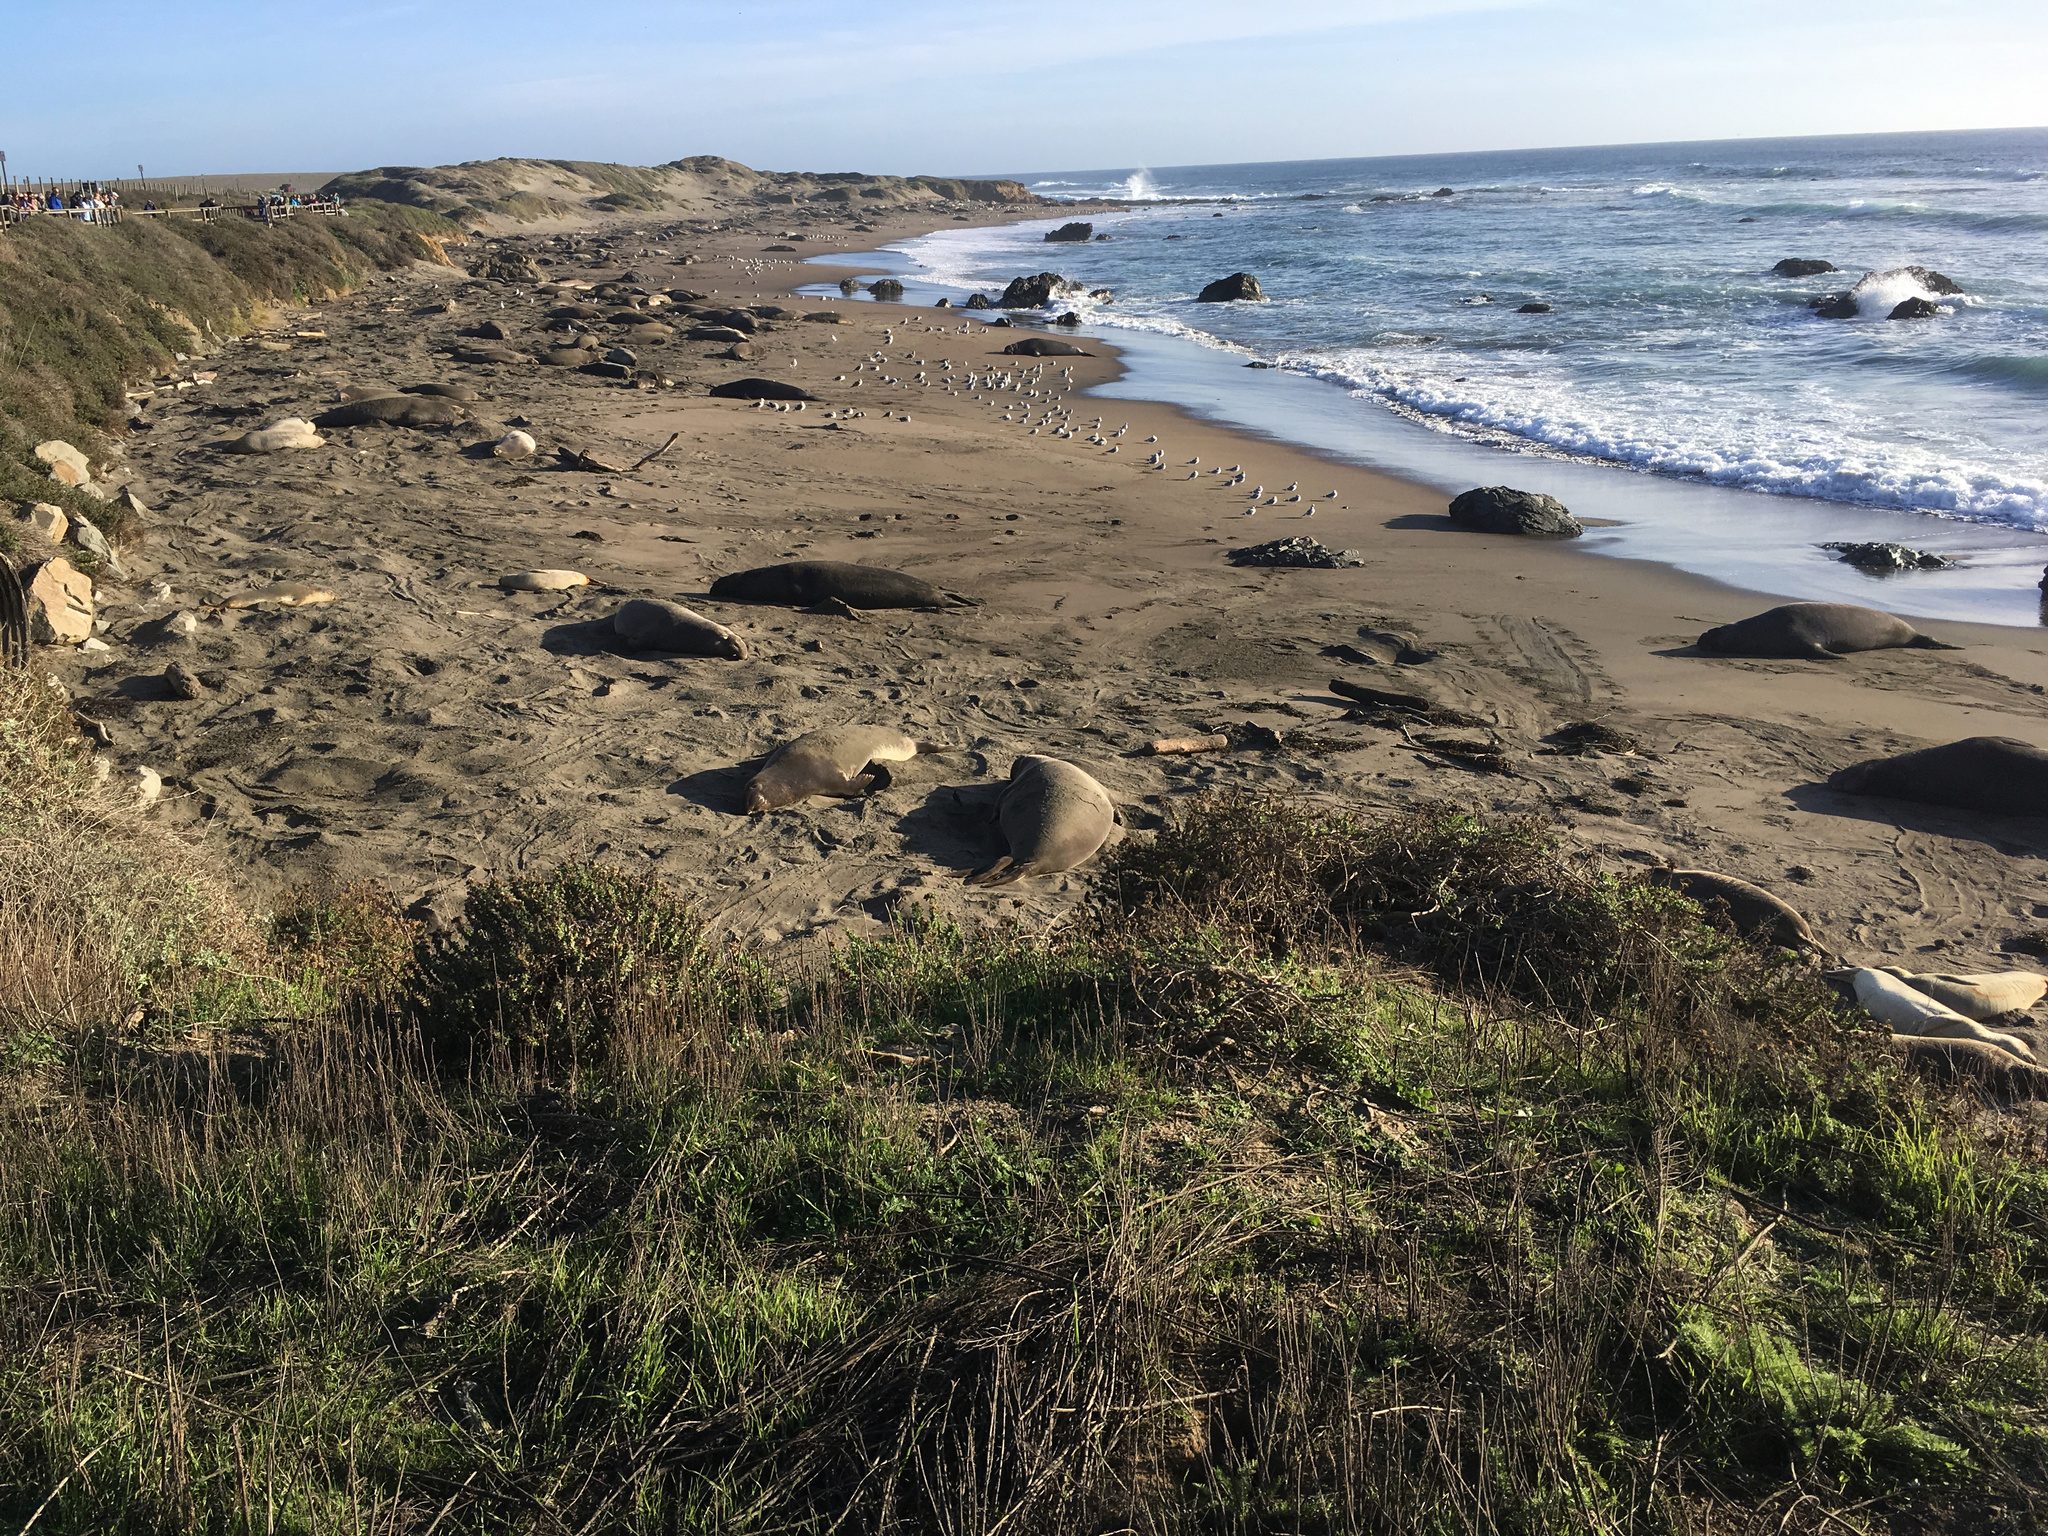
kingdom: Animalia
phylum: Chordata
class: Mammalia
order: Carnivora
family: Phocidae
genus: Mirounga
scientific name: Mirounga angustirostris
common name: Northern elephant seal
